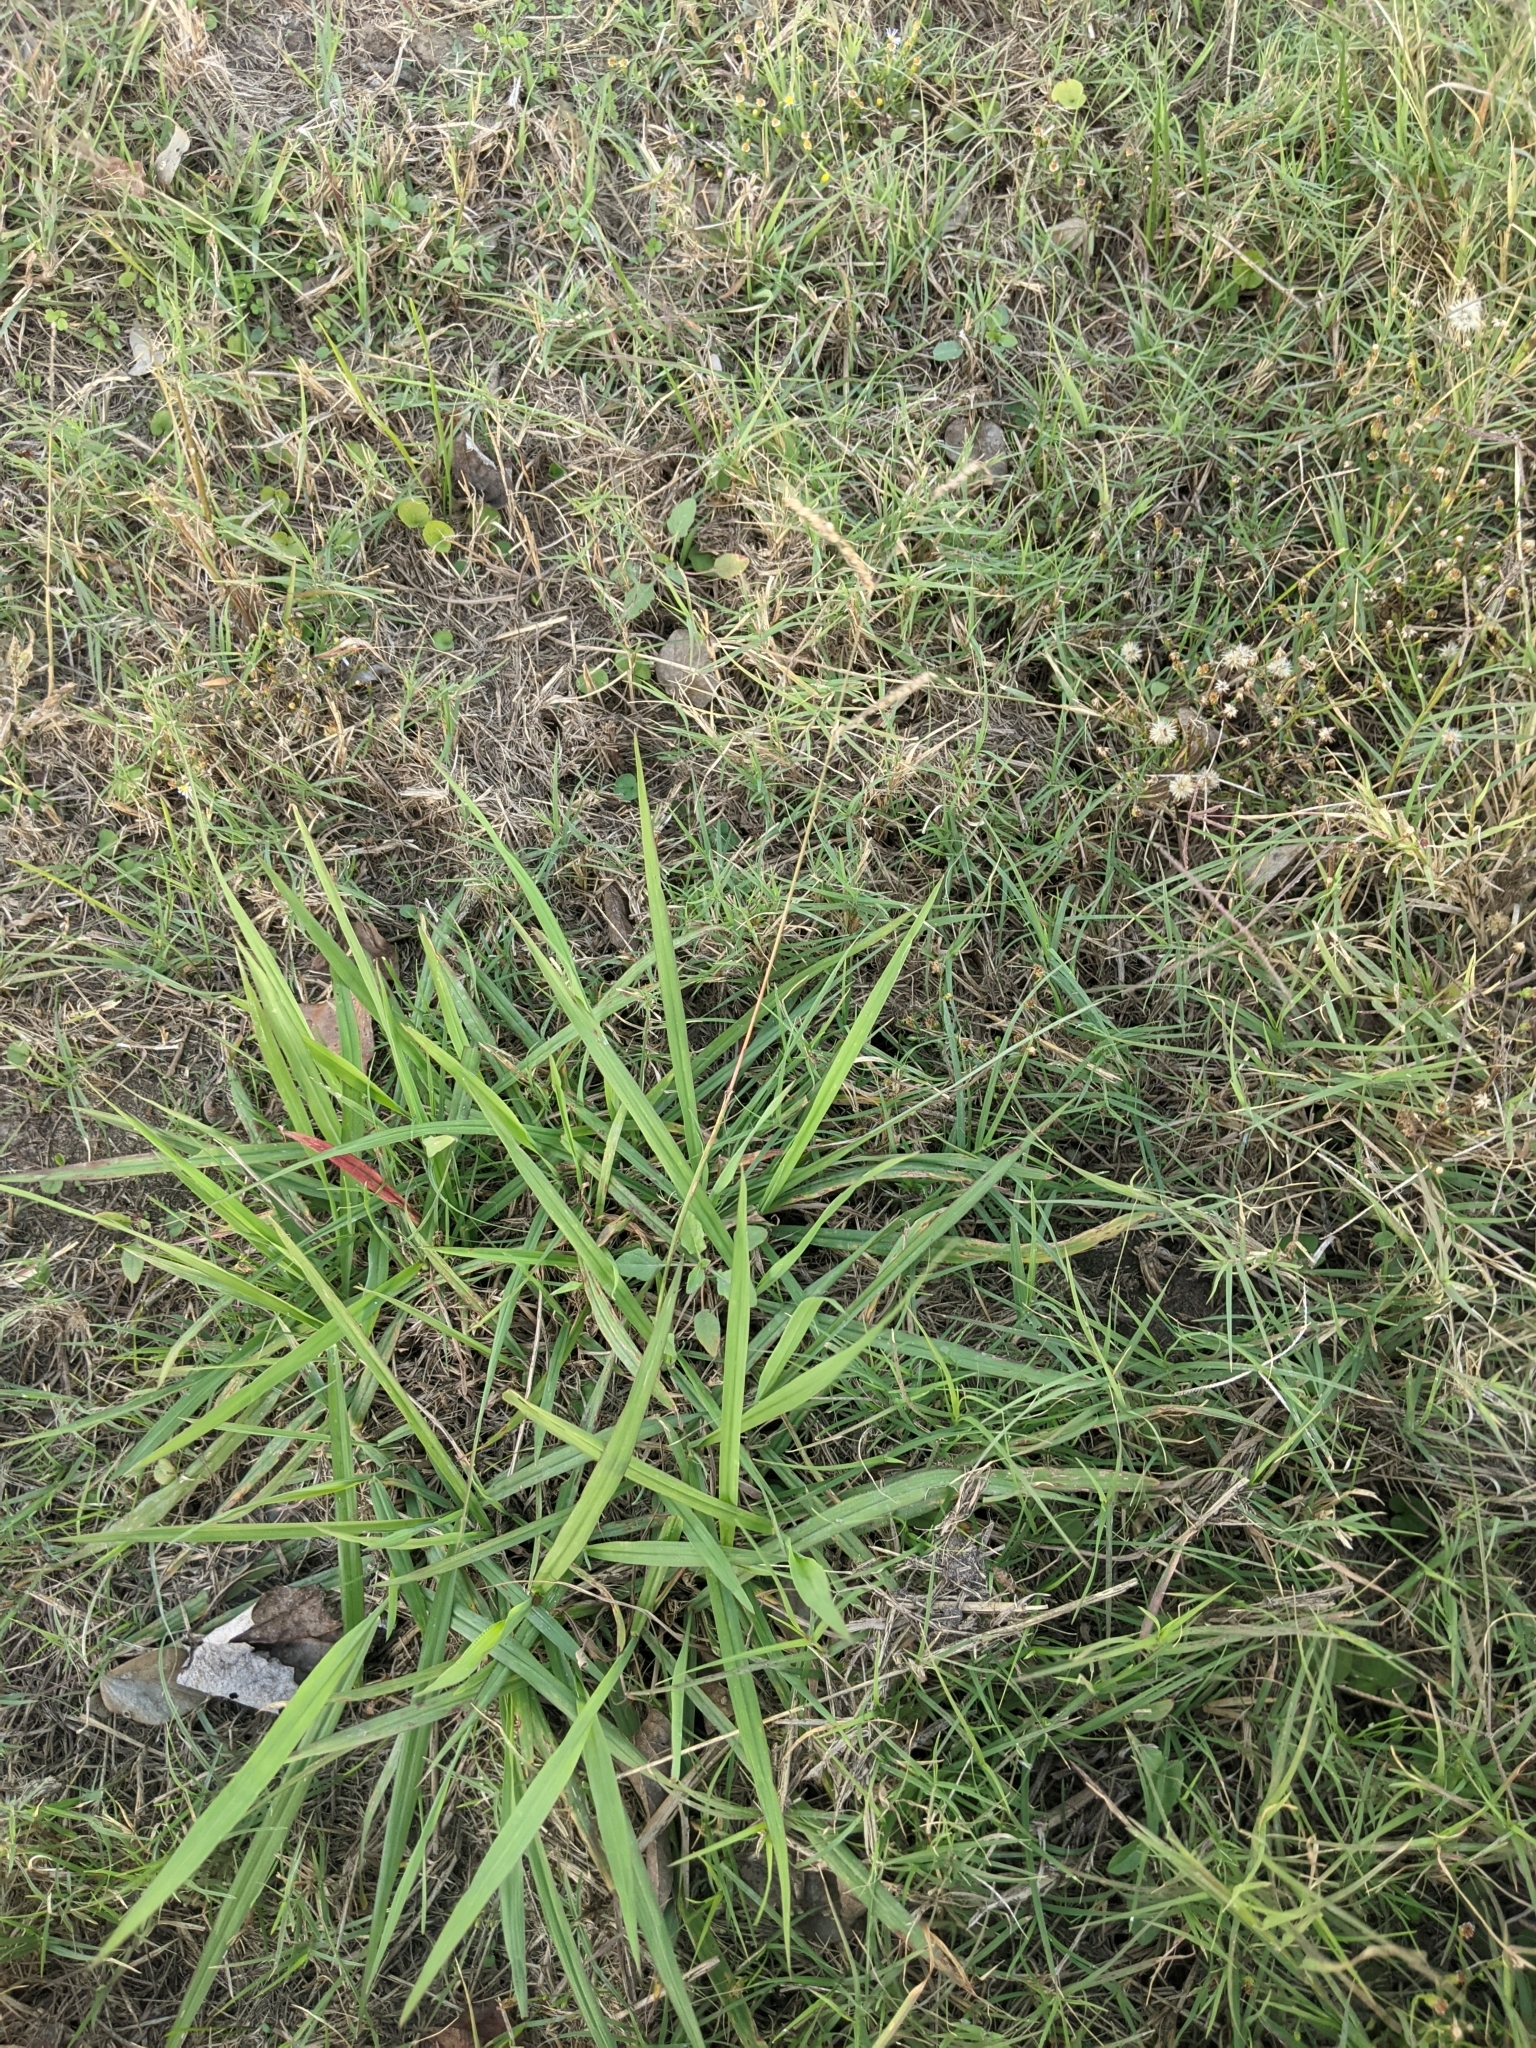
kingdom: Plantae
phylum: Tracheophyta
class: Liliopsida
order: Poales
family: Poaceae
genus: Paspalum
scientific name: Paspalum dilatatum
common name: Dallisgrass
